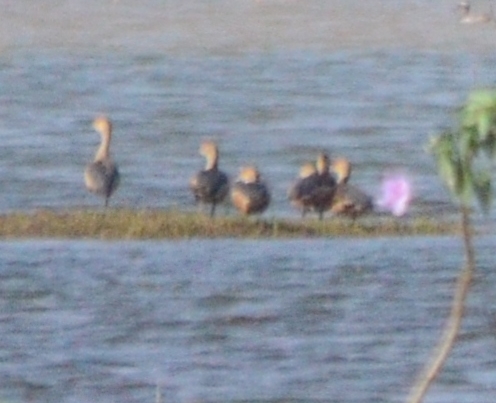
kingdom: Animalia
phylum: Chordata
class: Aves
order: Anseriformes
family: Anatidae
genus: Dendrocygna
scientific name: Dendrocygna javanica
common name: Lesser whistling-duck
